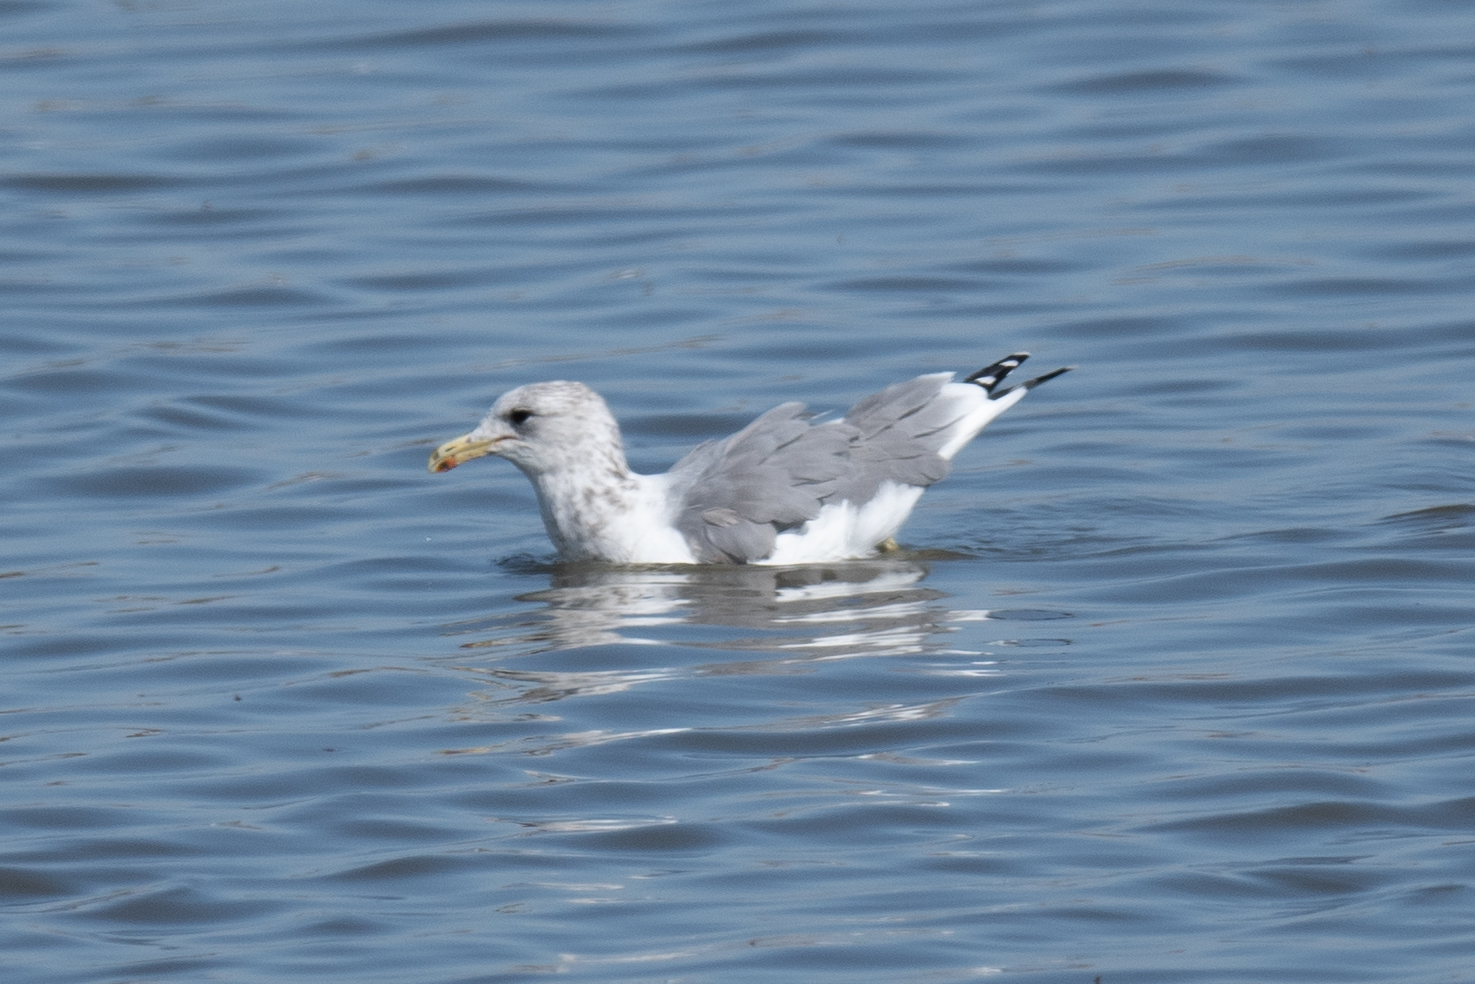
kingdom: Animalia
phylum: Chordata
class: Aves
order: Charadriiformes
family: Laridae
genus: Larus
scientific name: Larus californicus
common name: California gull
